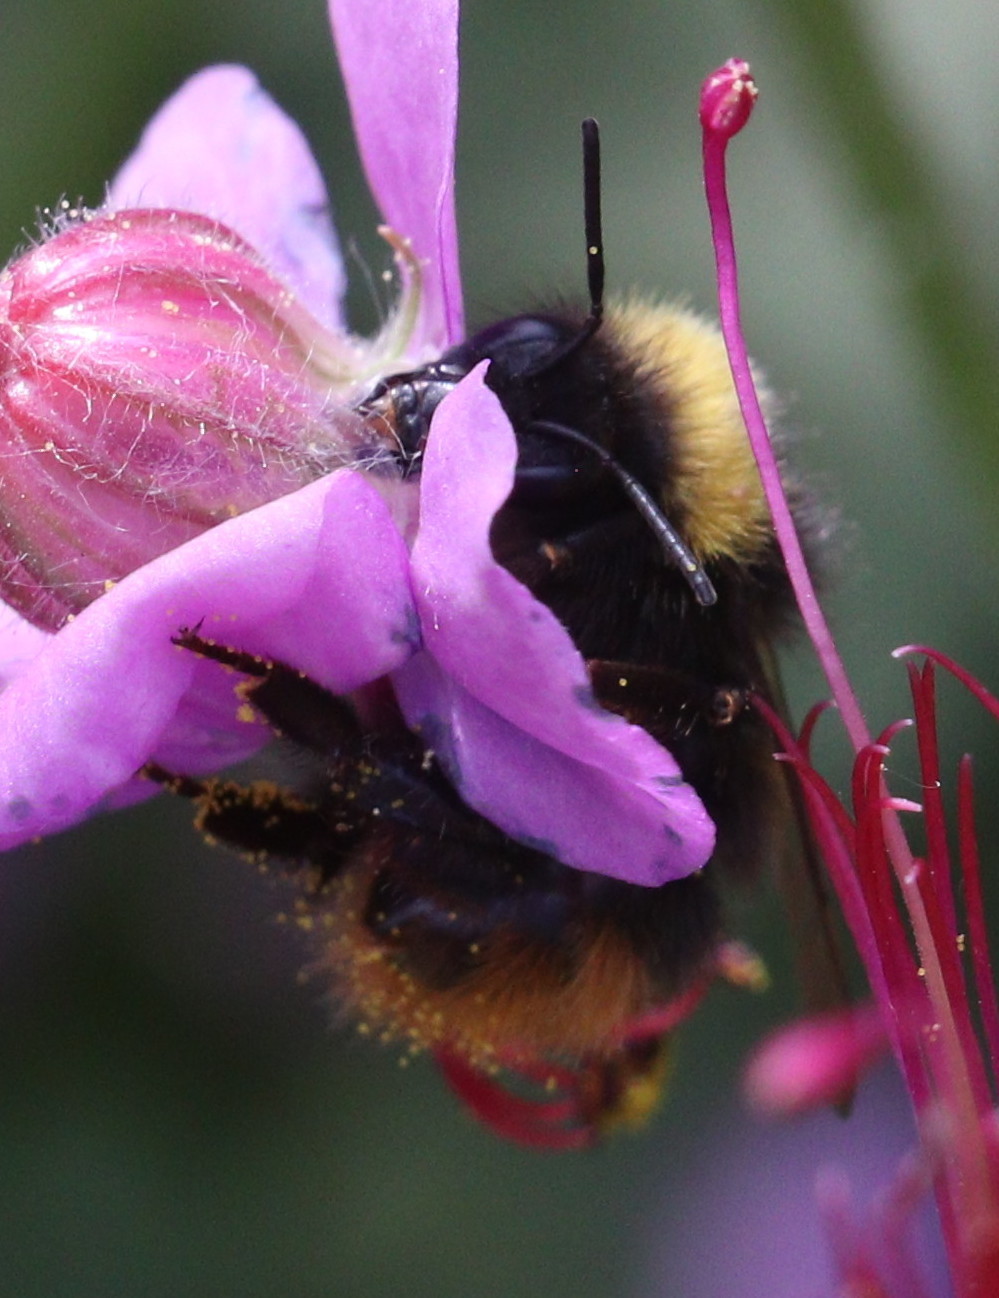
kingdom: Animalia
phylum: Arthropoda
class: Insecta
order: Hymenoptera
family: Apidae
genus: Bombus
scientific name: Bombus pratorum
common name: Early humble-bee
